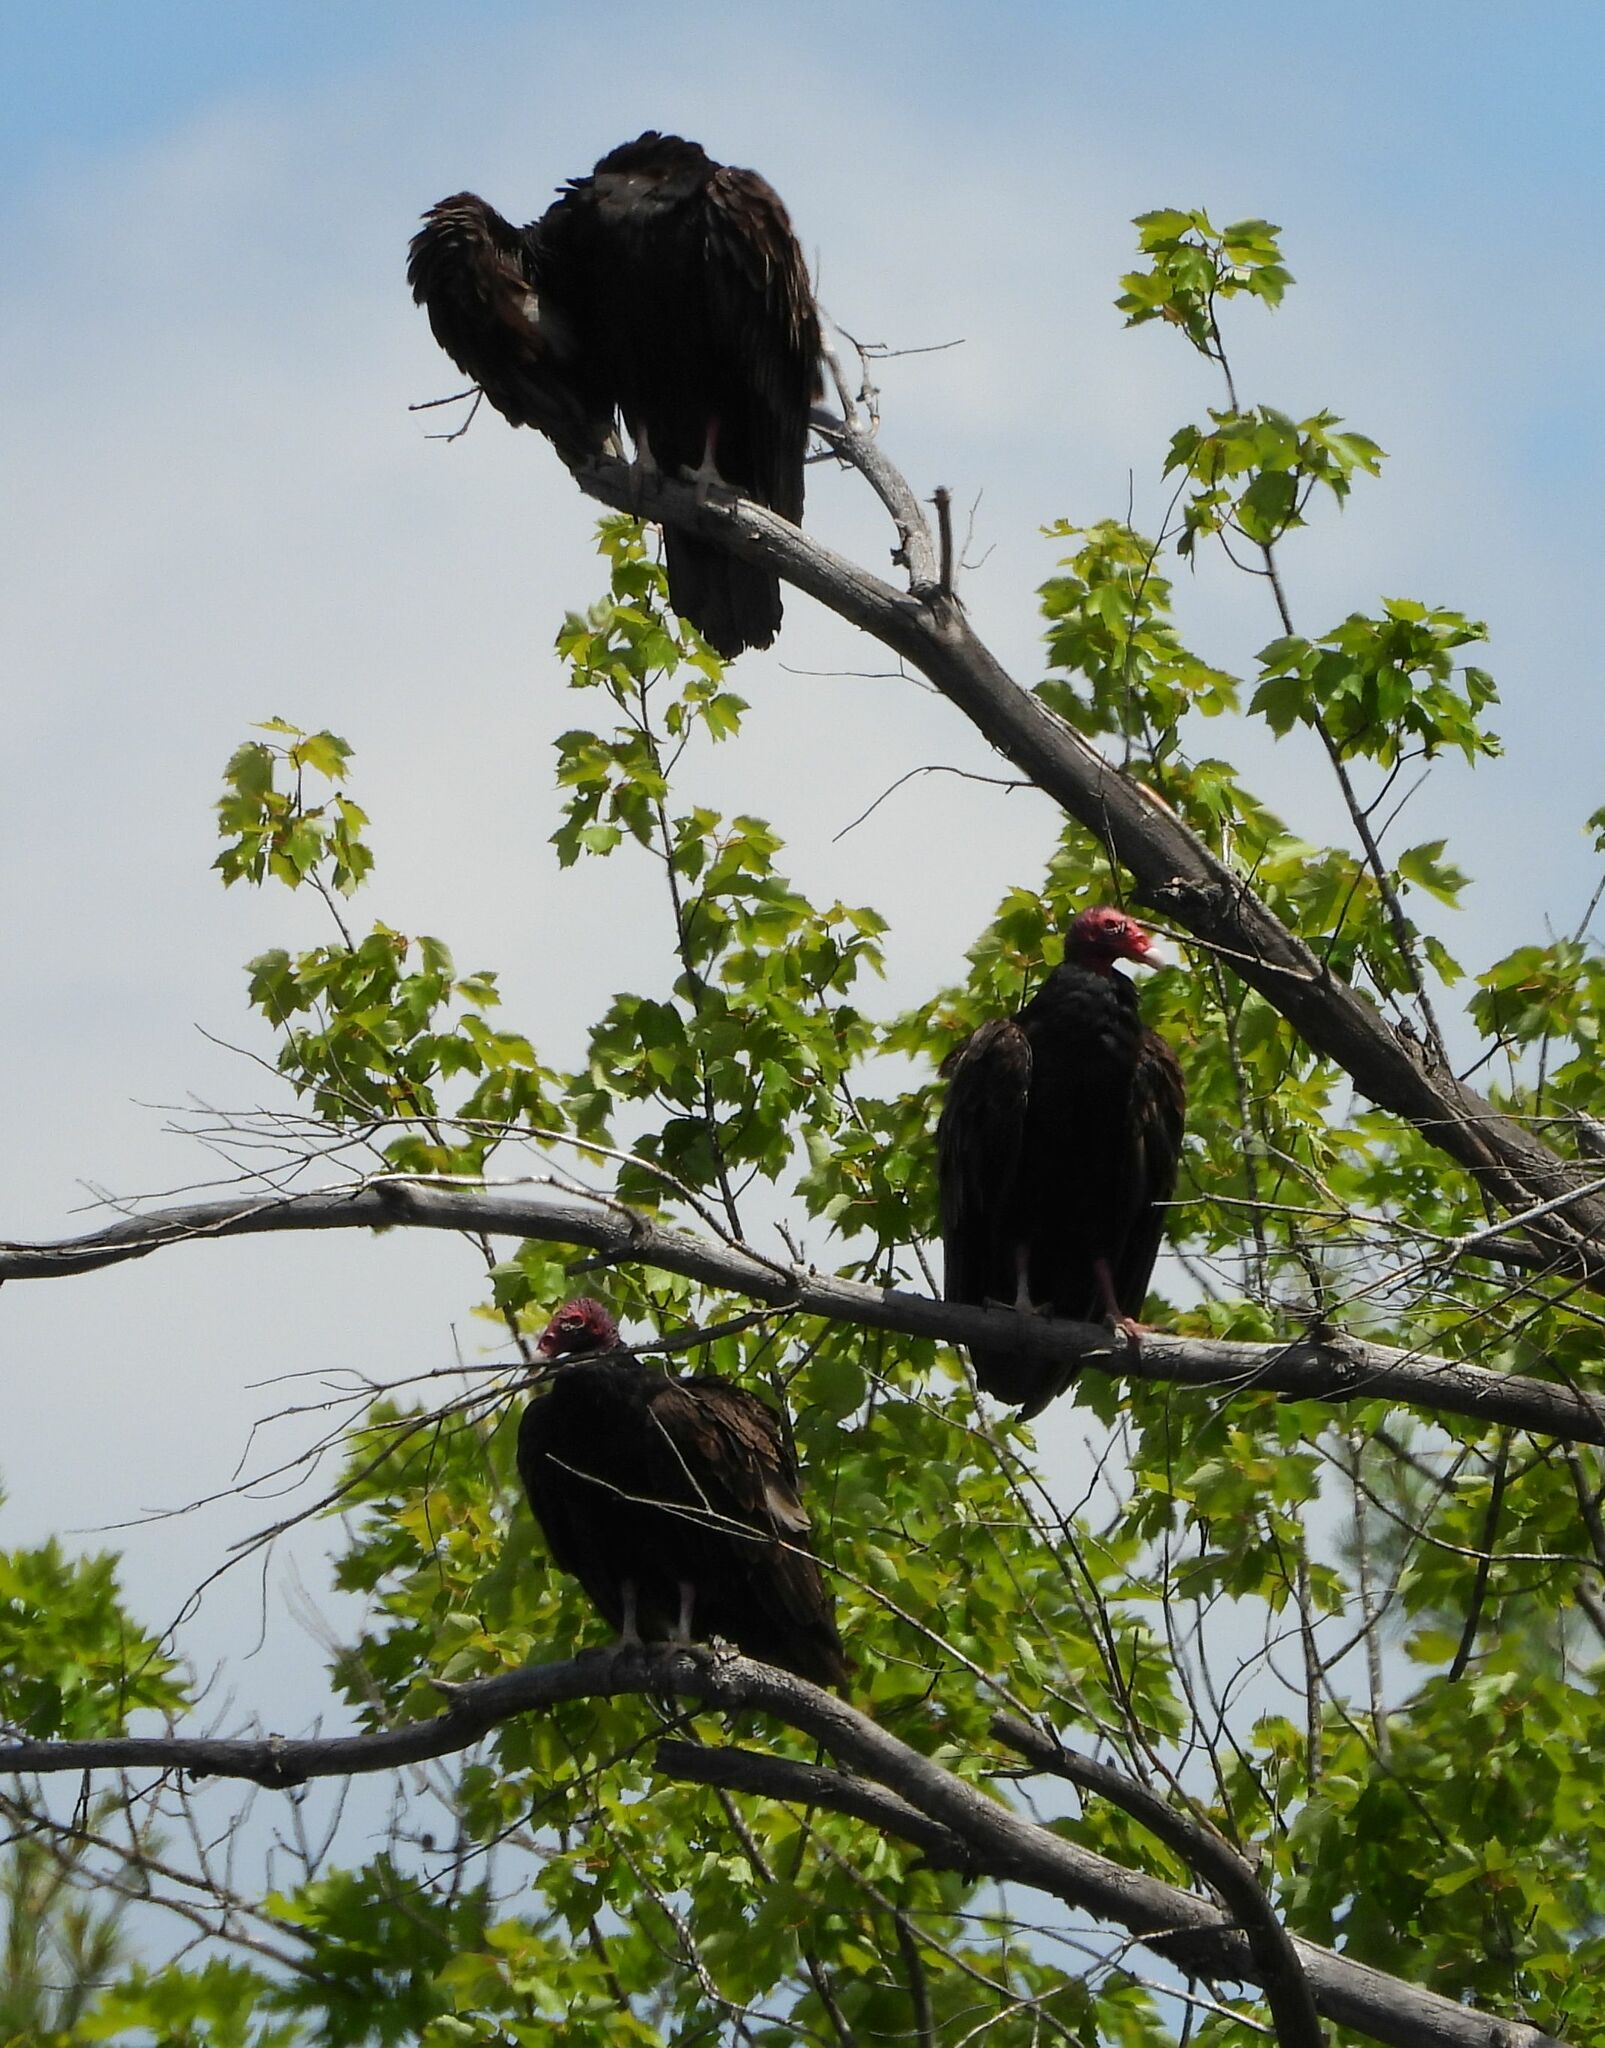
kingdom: Animalia
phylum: Chordata
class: Aves
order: Accipitriformes
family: Cathartidae
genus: Cathartes
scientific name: Cathartes aura
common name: Turkey vulture
